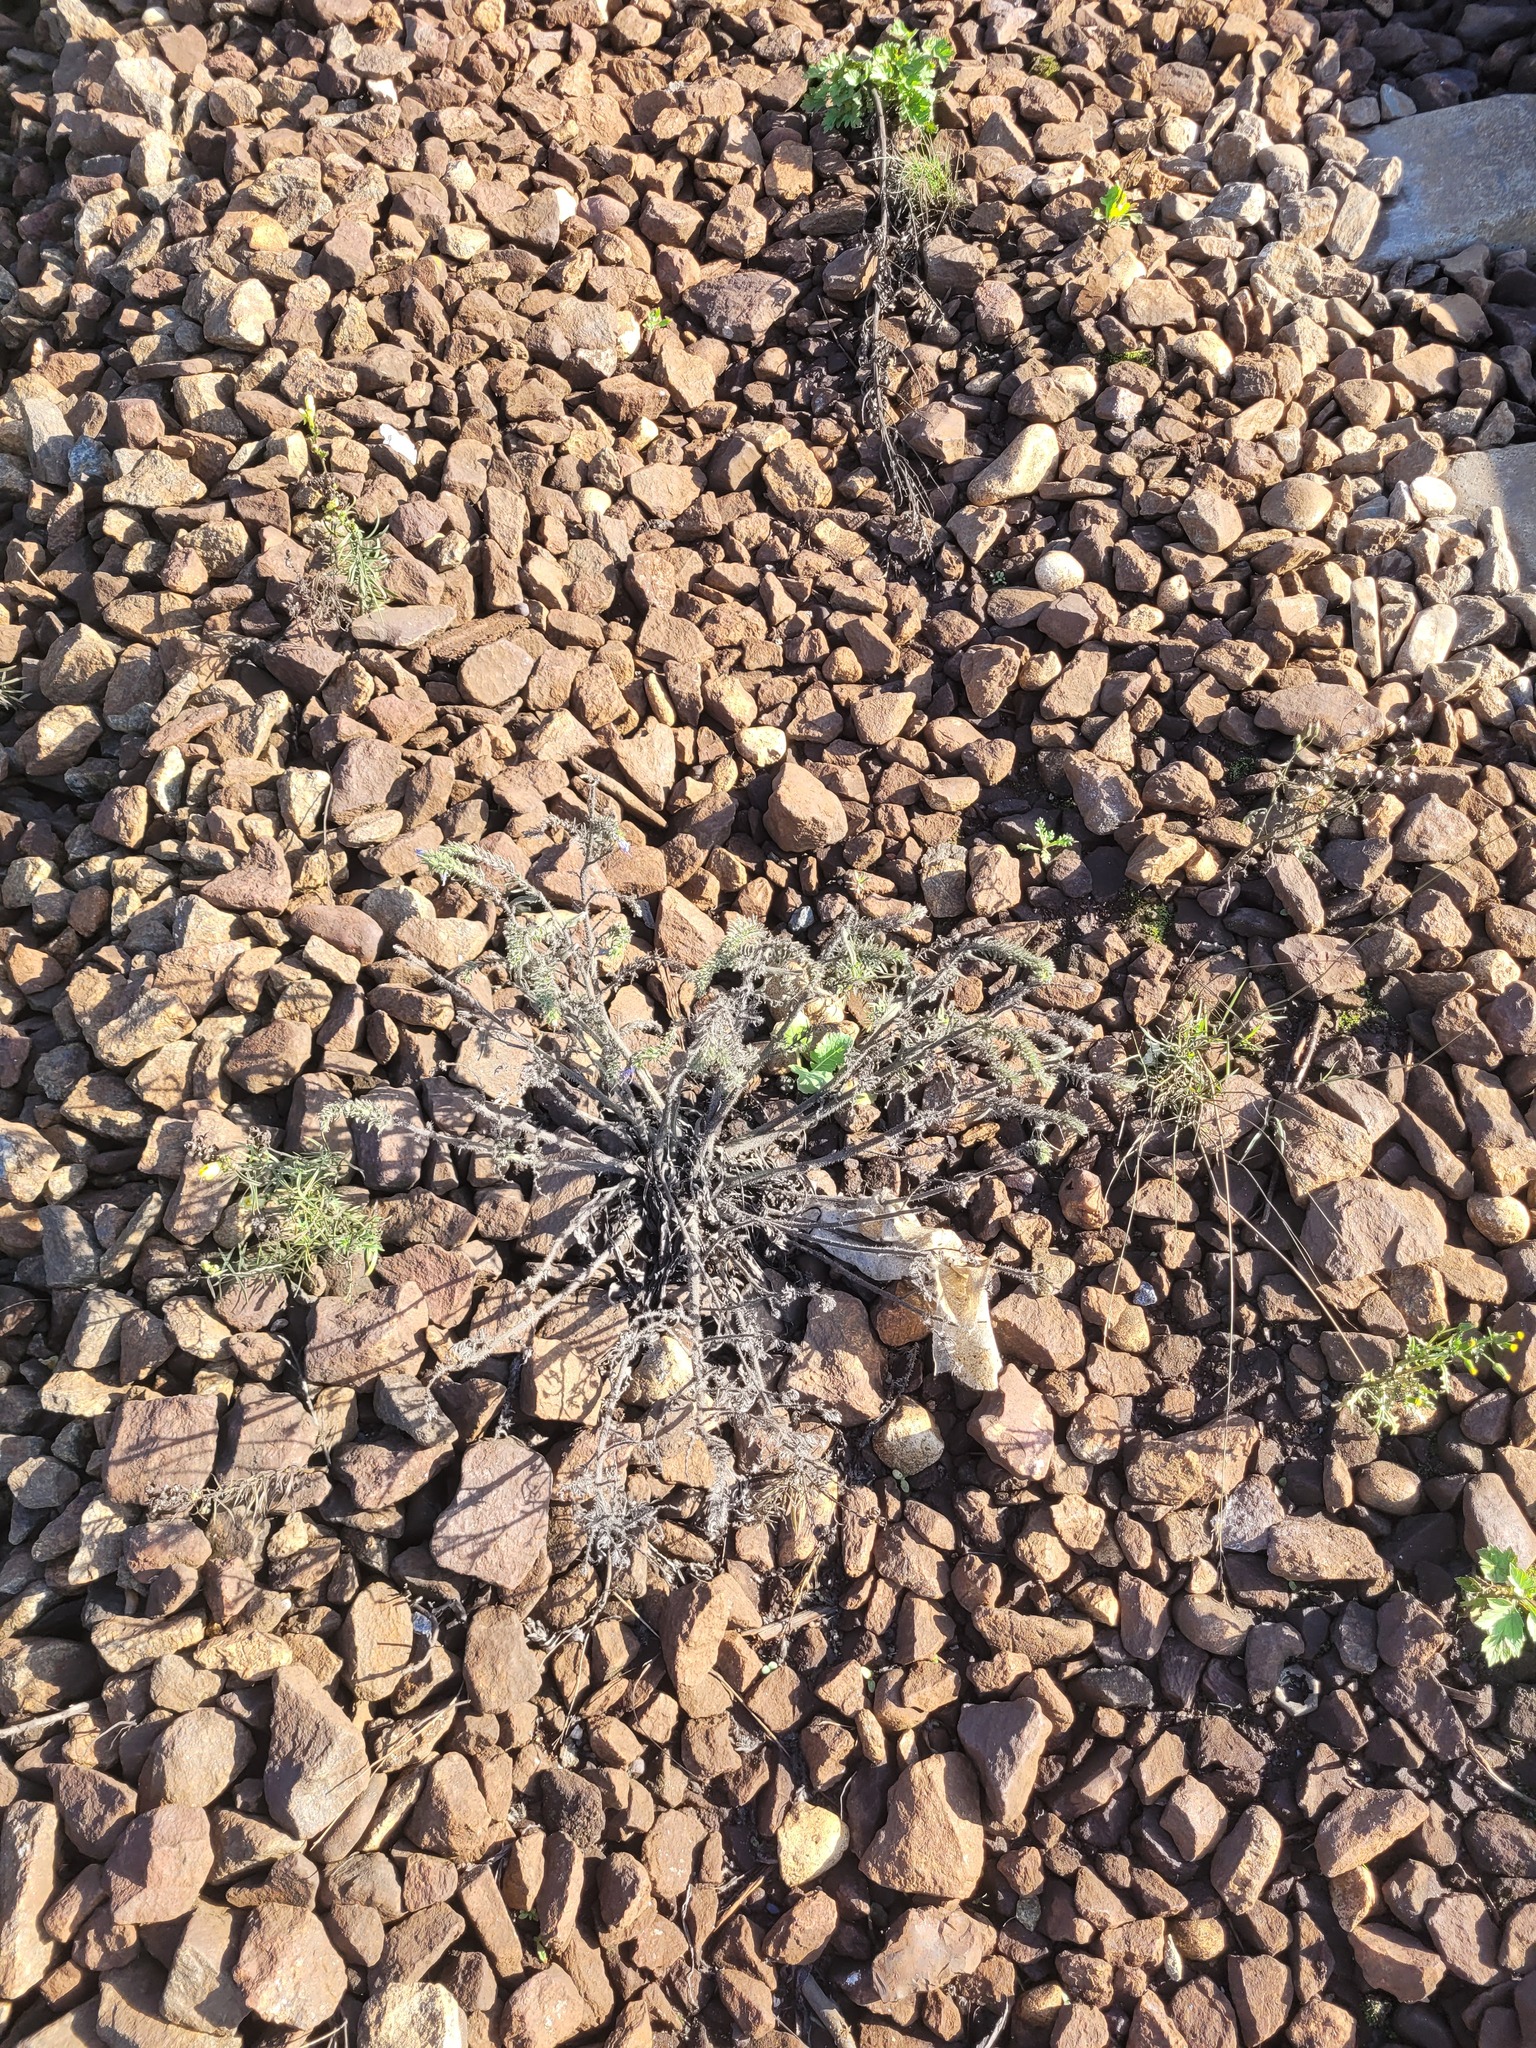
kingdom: Plantae
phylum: Tracheophyta
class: Magnoliopsida
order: Boraginales
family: Boraginaceae
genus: Echium
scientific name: Echium vulgare
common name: Common viper's bugloss
